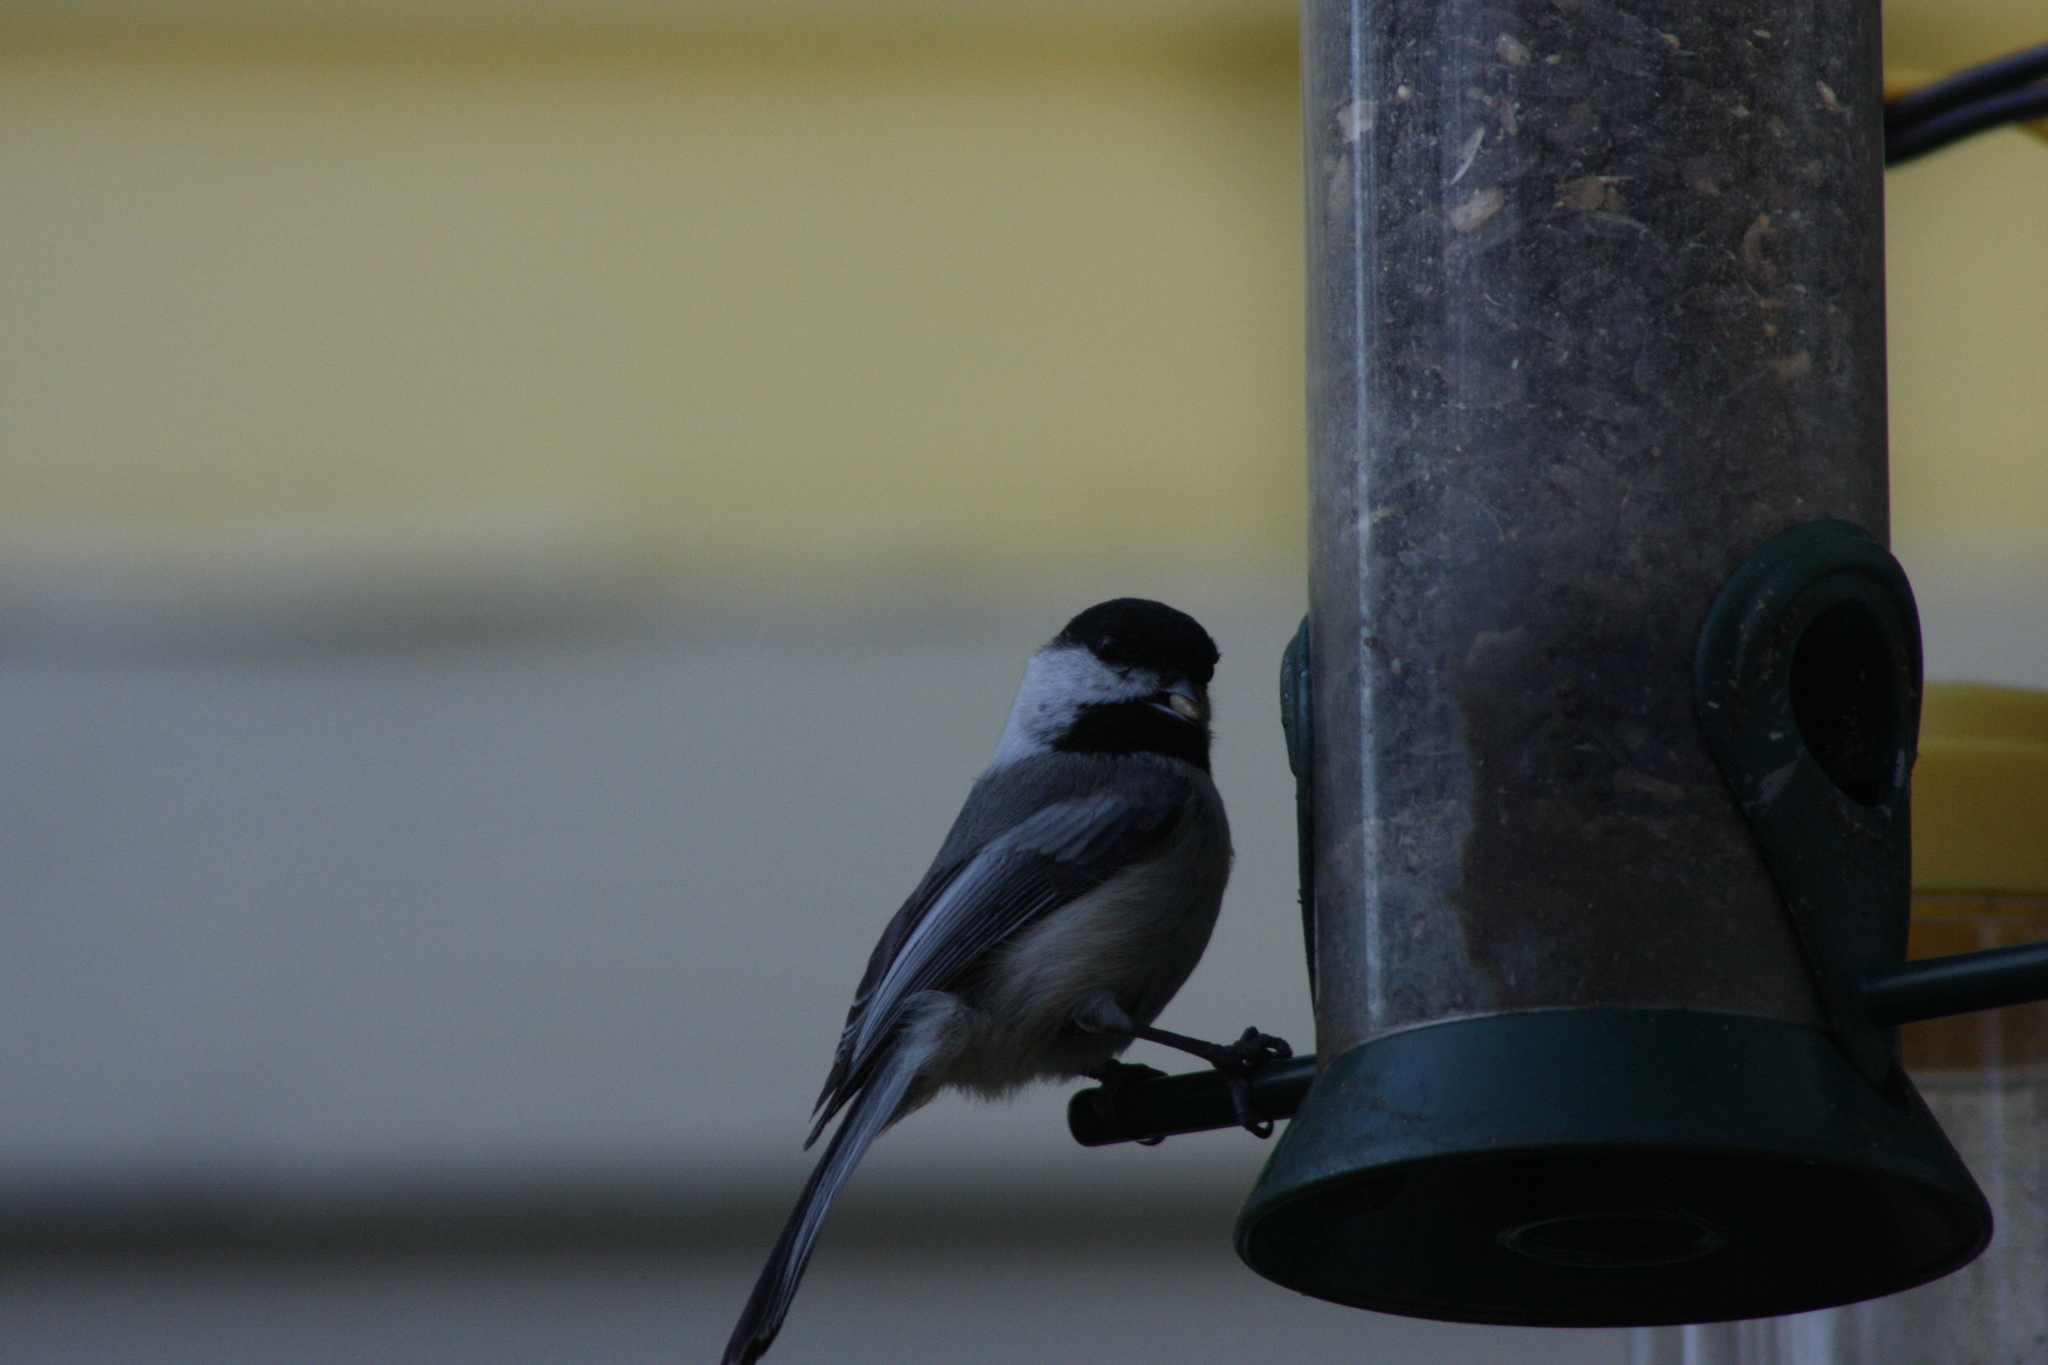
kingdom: Animalia
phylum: Chordata
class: Aves
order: Passeriformes
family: Paridae
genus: Poecile
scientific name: Poecile atricapillus
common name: Black-capped chickadee
